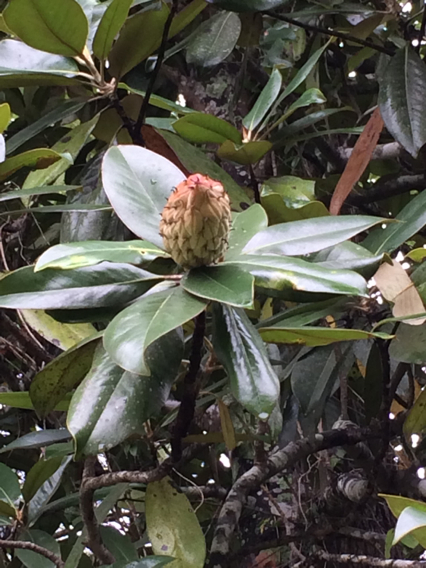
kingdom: Plantae
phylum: Tracheophyta
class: Magnoliopsida
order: Magnoliales
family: Magnoliaceae
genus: Magnolia
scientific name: Magnolia grandiflora
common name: Southern magnolia
